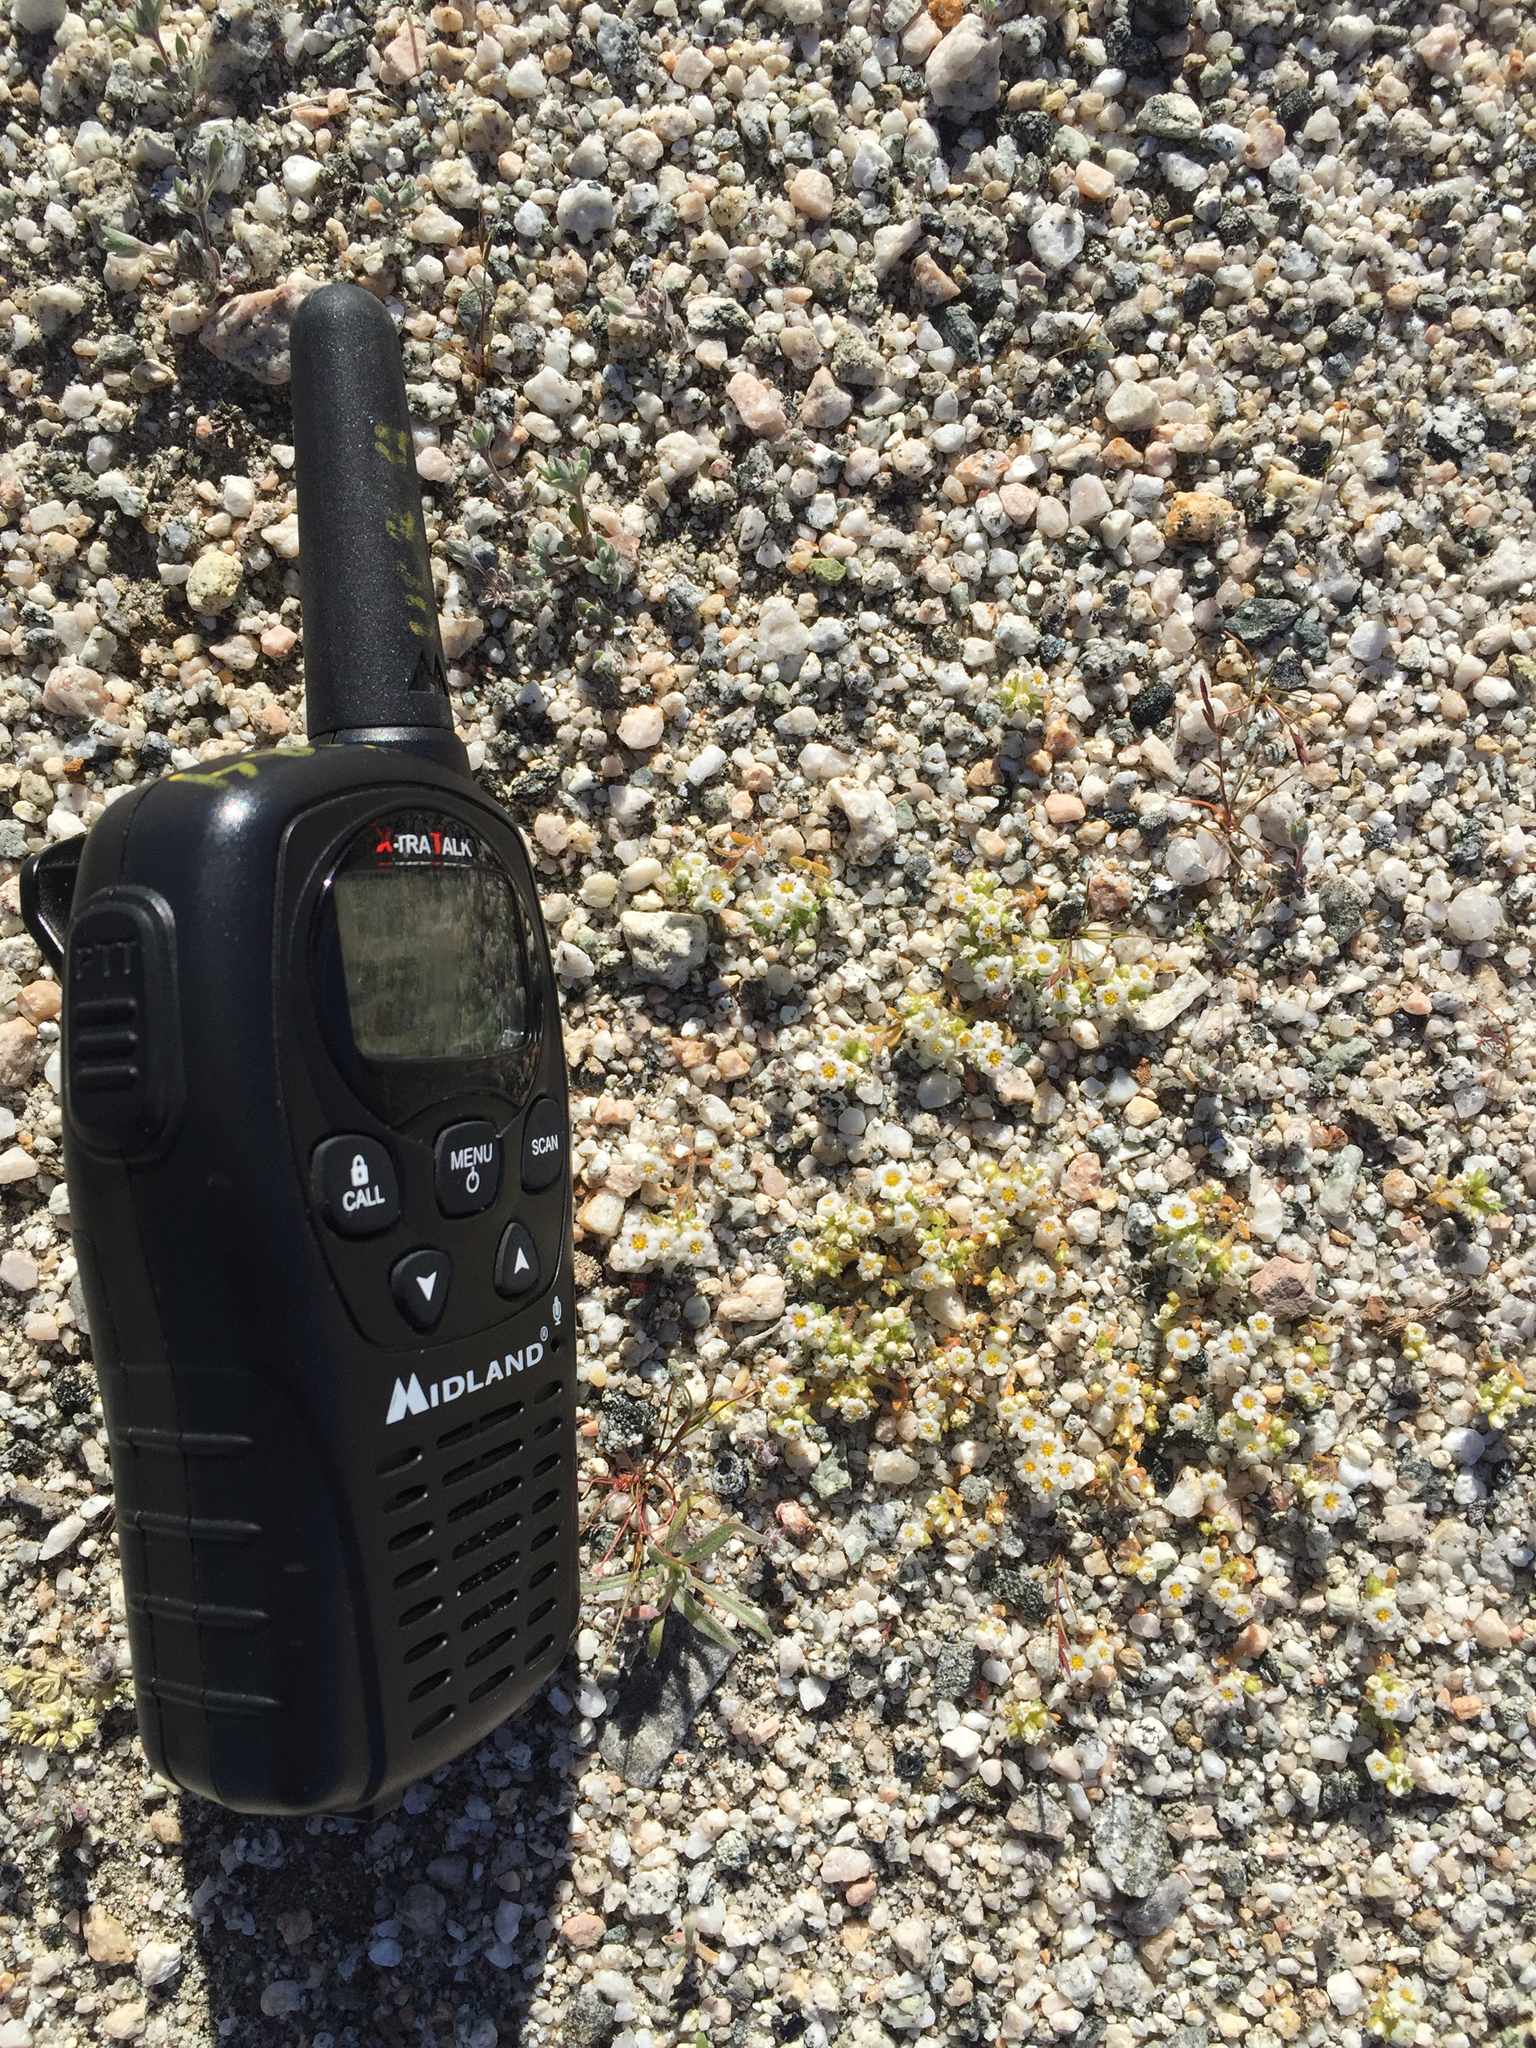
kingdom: Plantae
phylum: Tracheophyta
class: Magnoliopsida
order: Ericales
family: Polemoniaceae
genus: Maculigilia
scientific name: Maculigilia maculata
